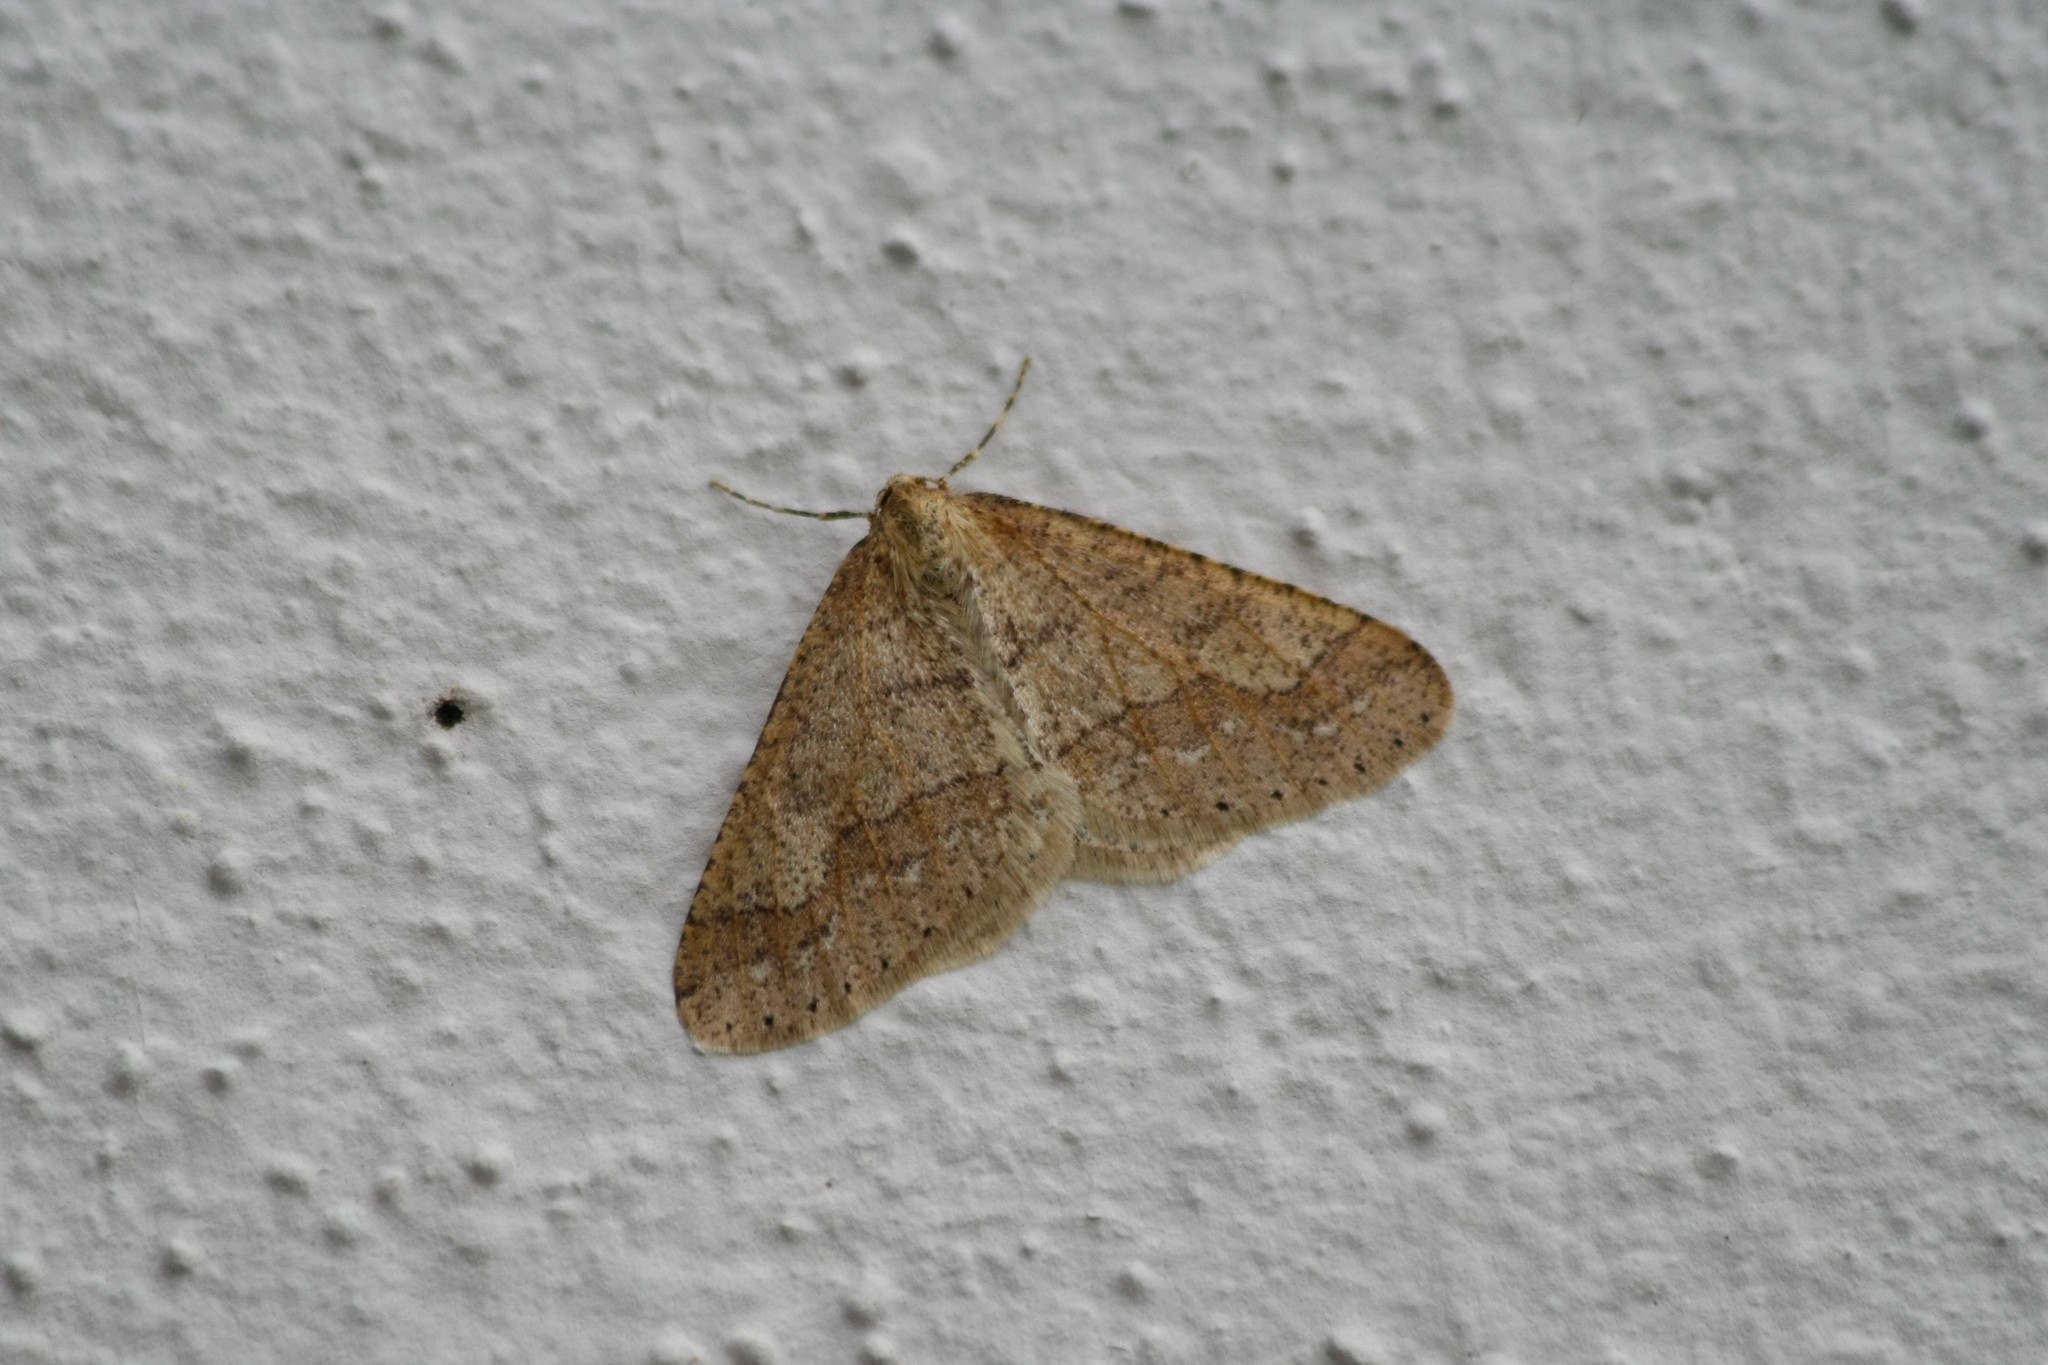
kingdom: Animalia
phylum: Arthropoda
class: Insecta
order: Lepidoptera
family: Geometridae
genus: Agriopis
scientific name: Agriopis marginaria
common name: Dotted border
